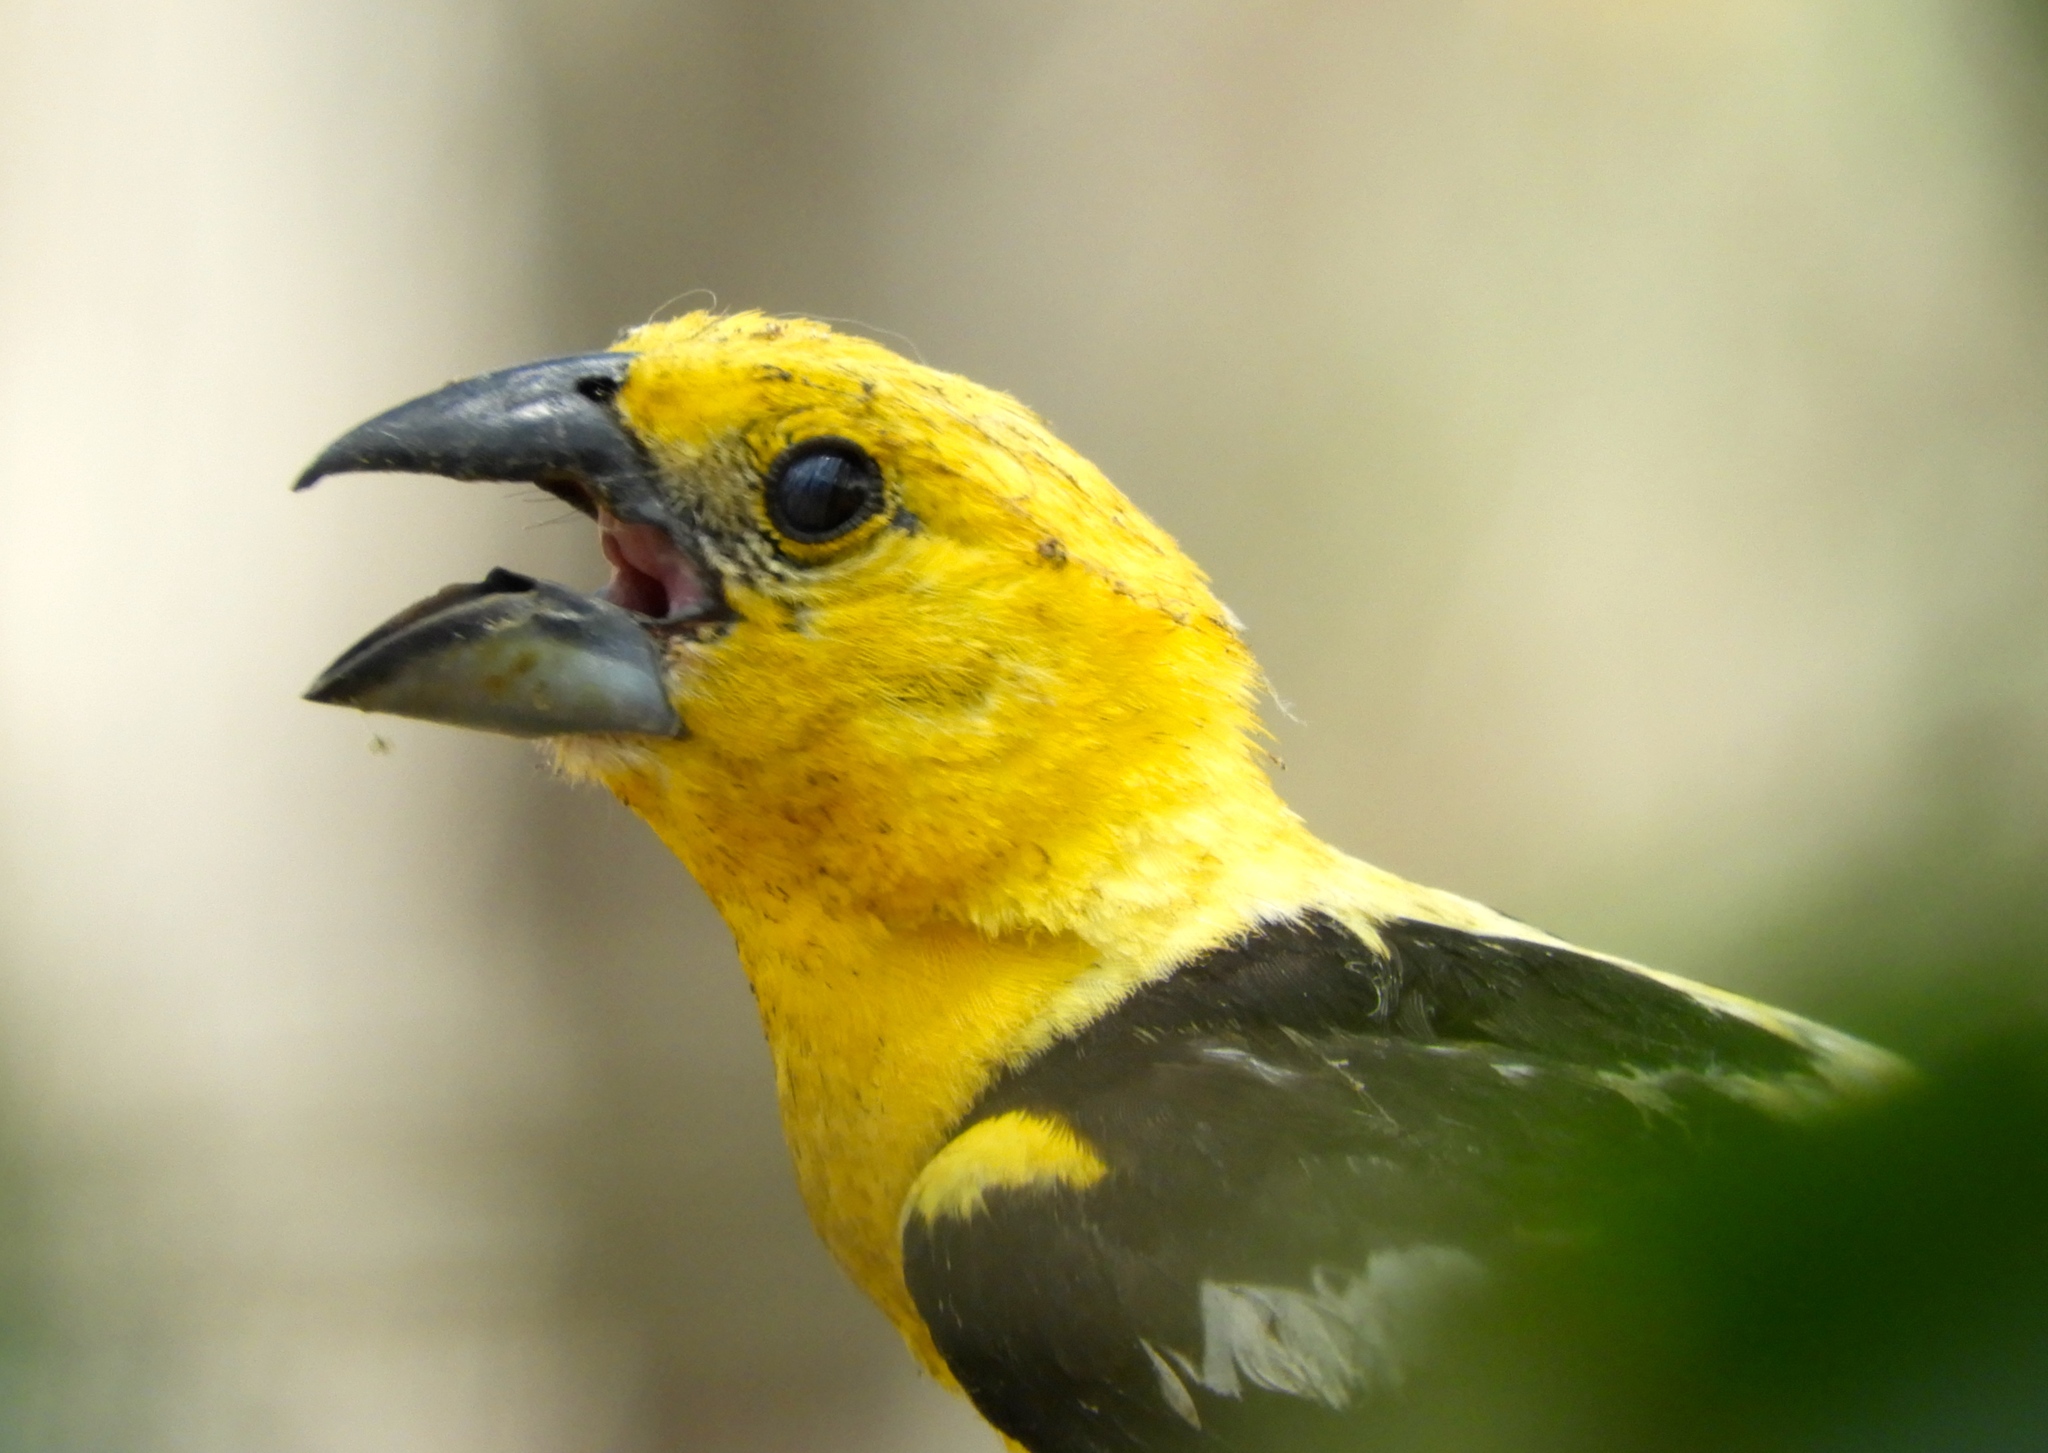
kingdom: Animalia
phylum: Chordata
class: Aves
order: Passeriformes
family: Cardinalidae
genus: Pheucticus
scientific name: Pheucticus chrysopeplus
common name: Yellow grosbeak
